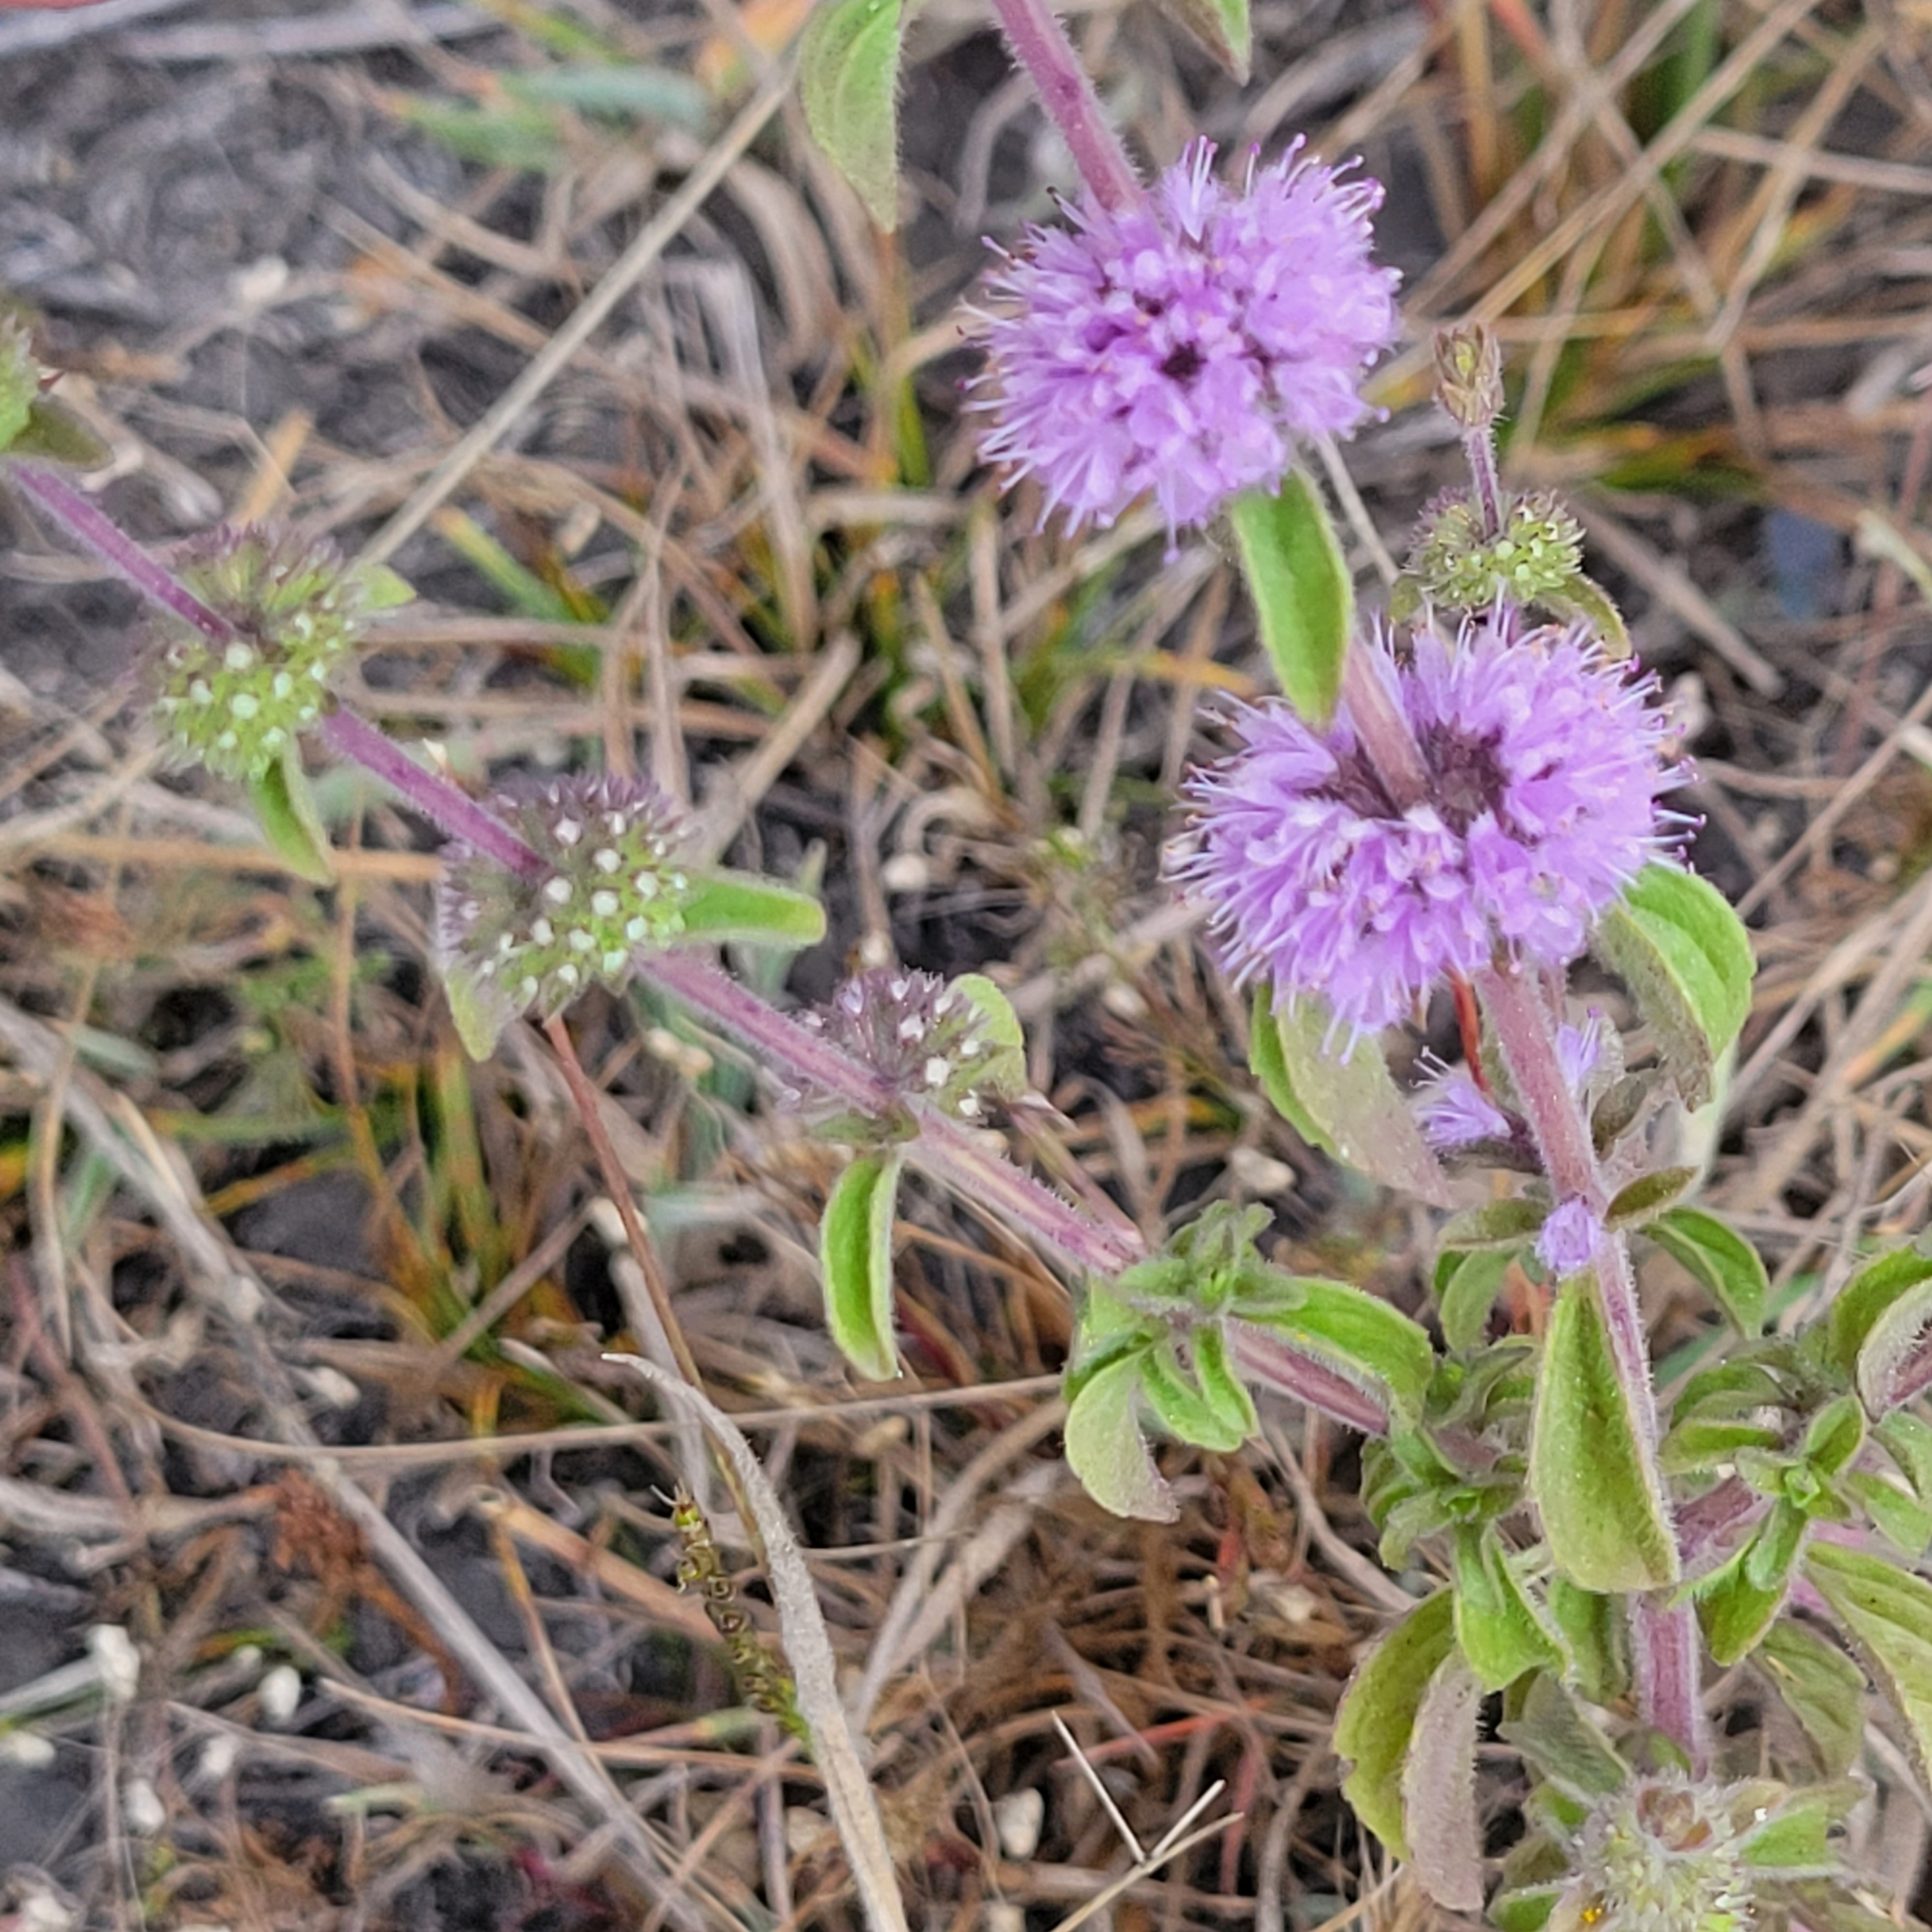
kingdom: Plantae
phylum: Tracheophyta
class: Magnoliopsida
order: Lamiales
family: Lamiaceae
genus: Mentha
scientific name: Mentha pulegium
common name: Pennyroyal
